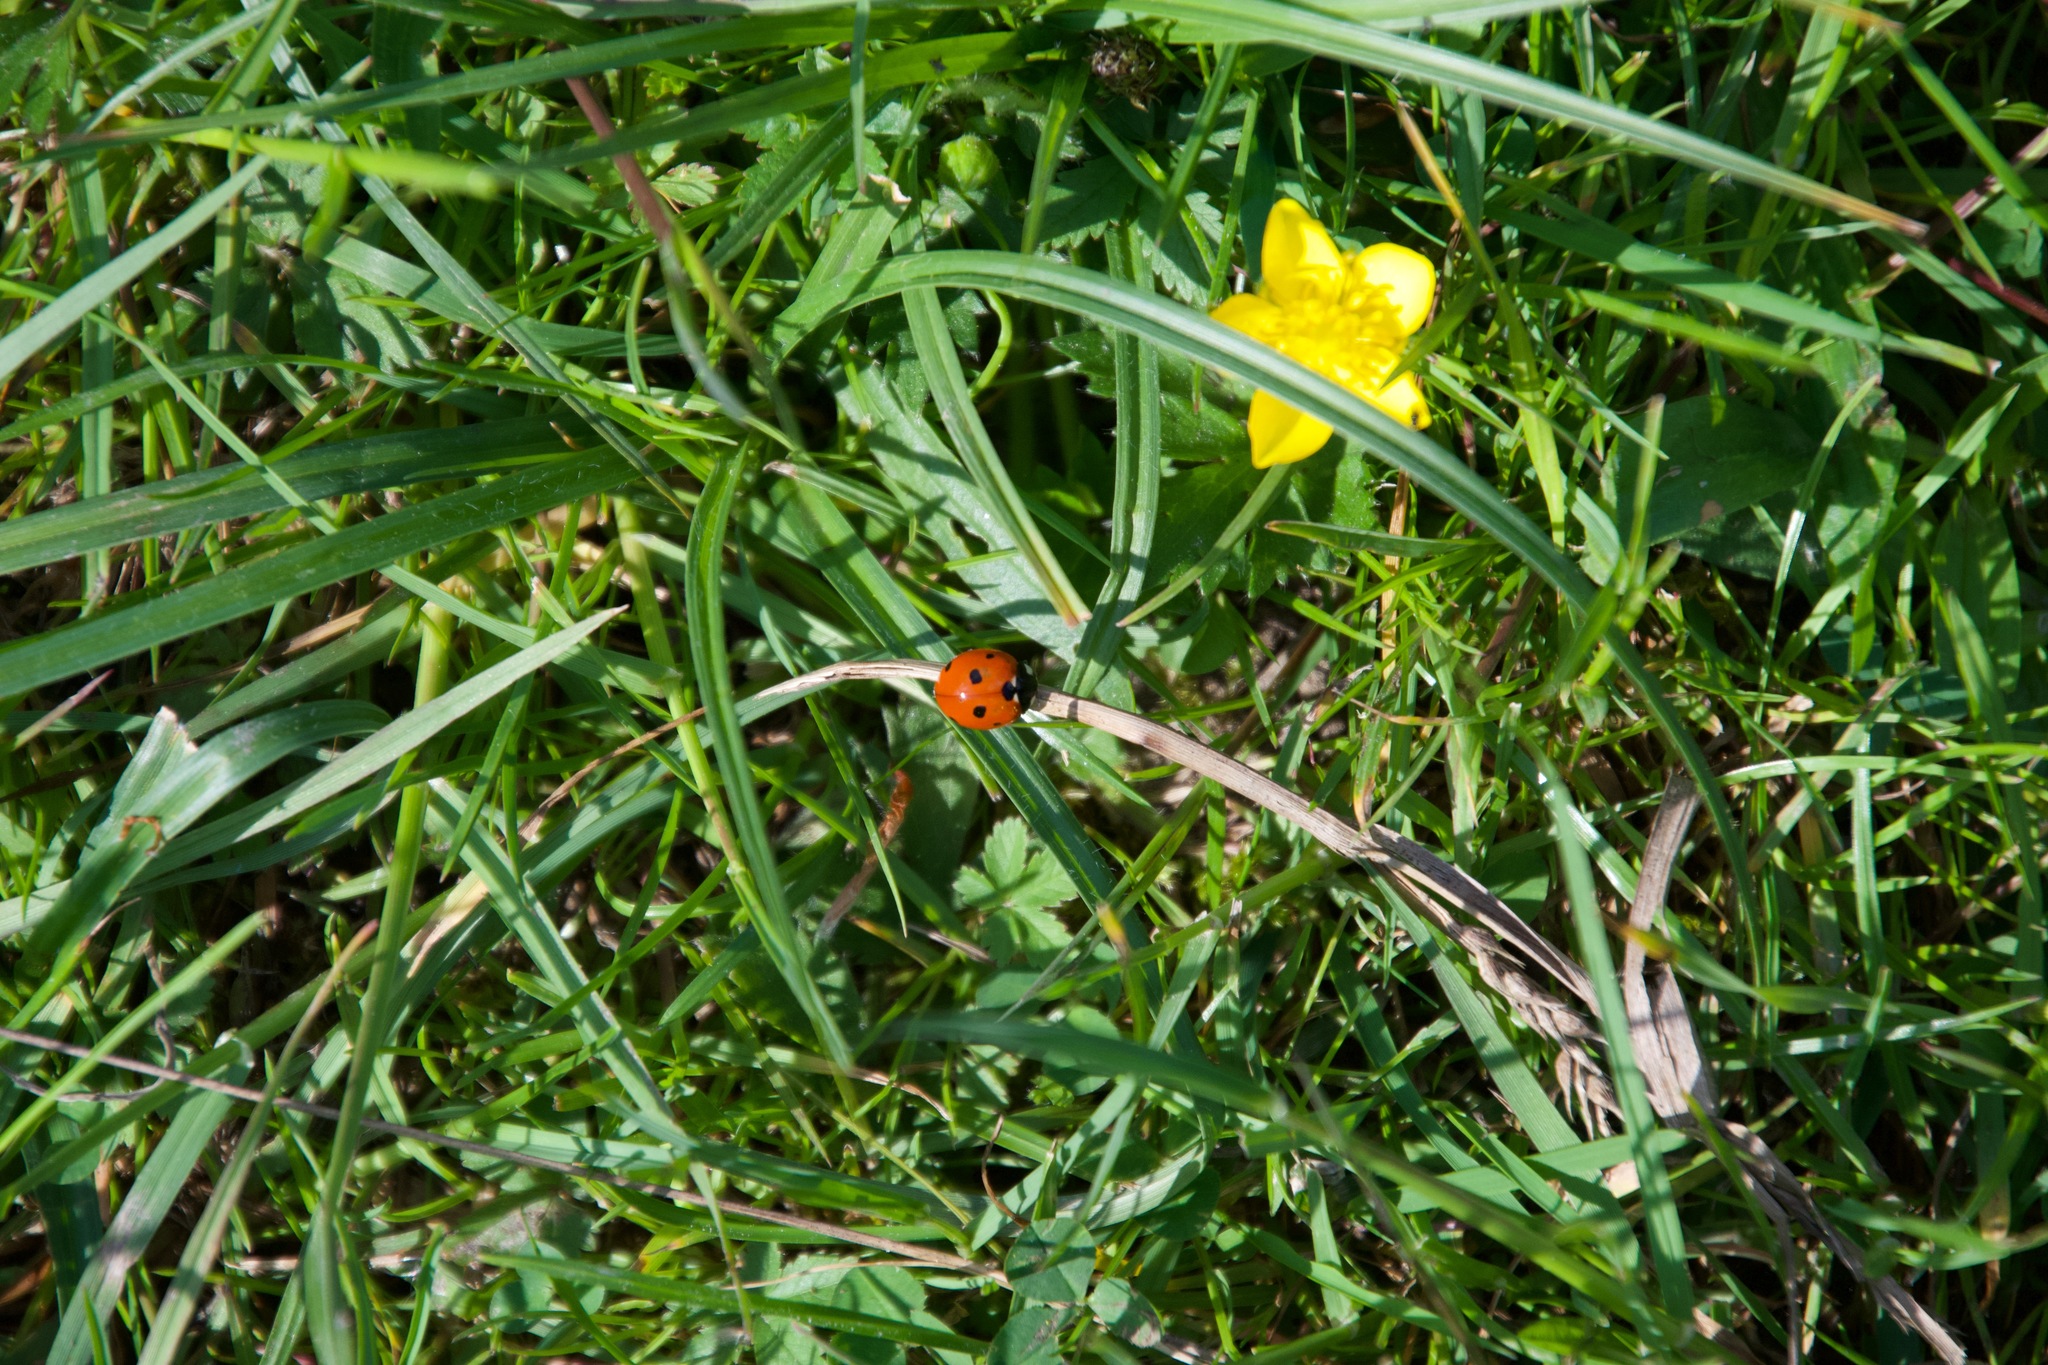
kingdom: Animalia
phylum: Arthropoda
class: Insecta
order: Coleoptera
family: Coccinellidae
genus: Coccinella
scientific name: Coccinella septempunctata
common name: Sevenspotted lady beetle
